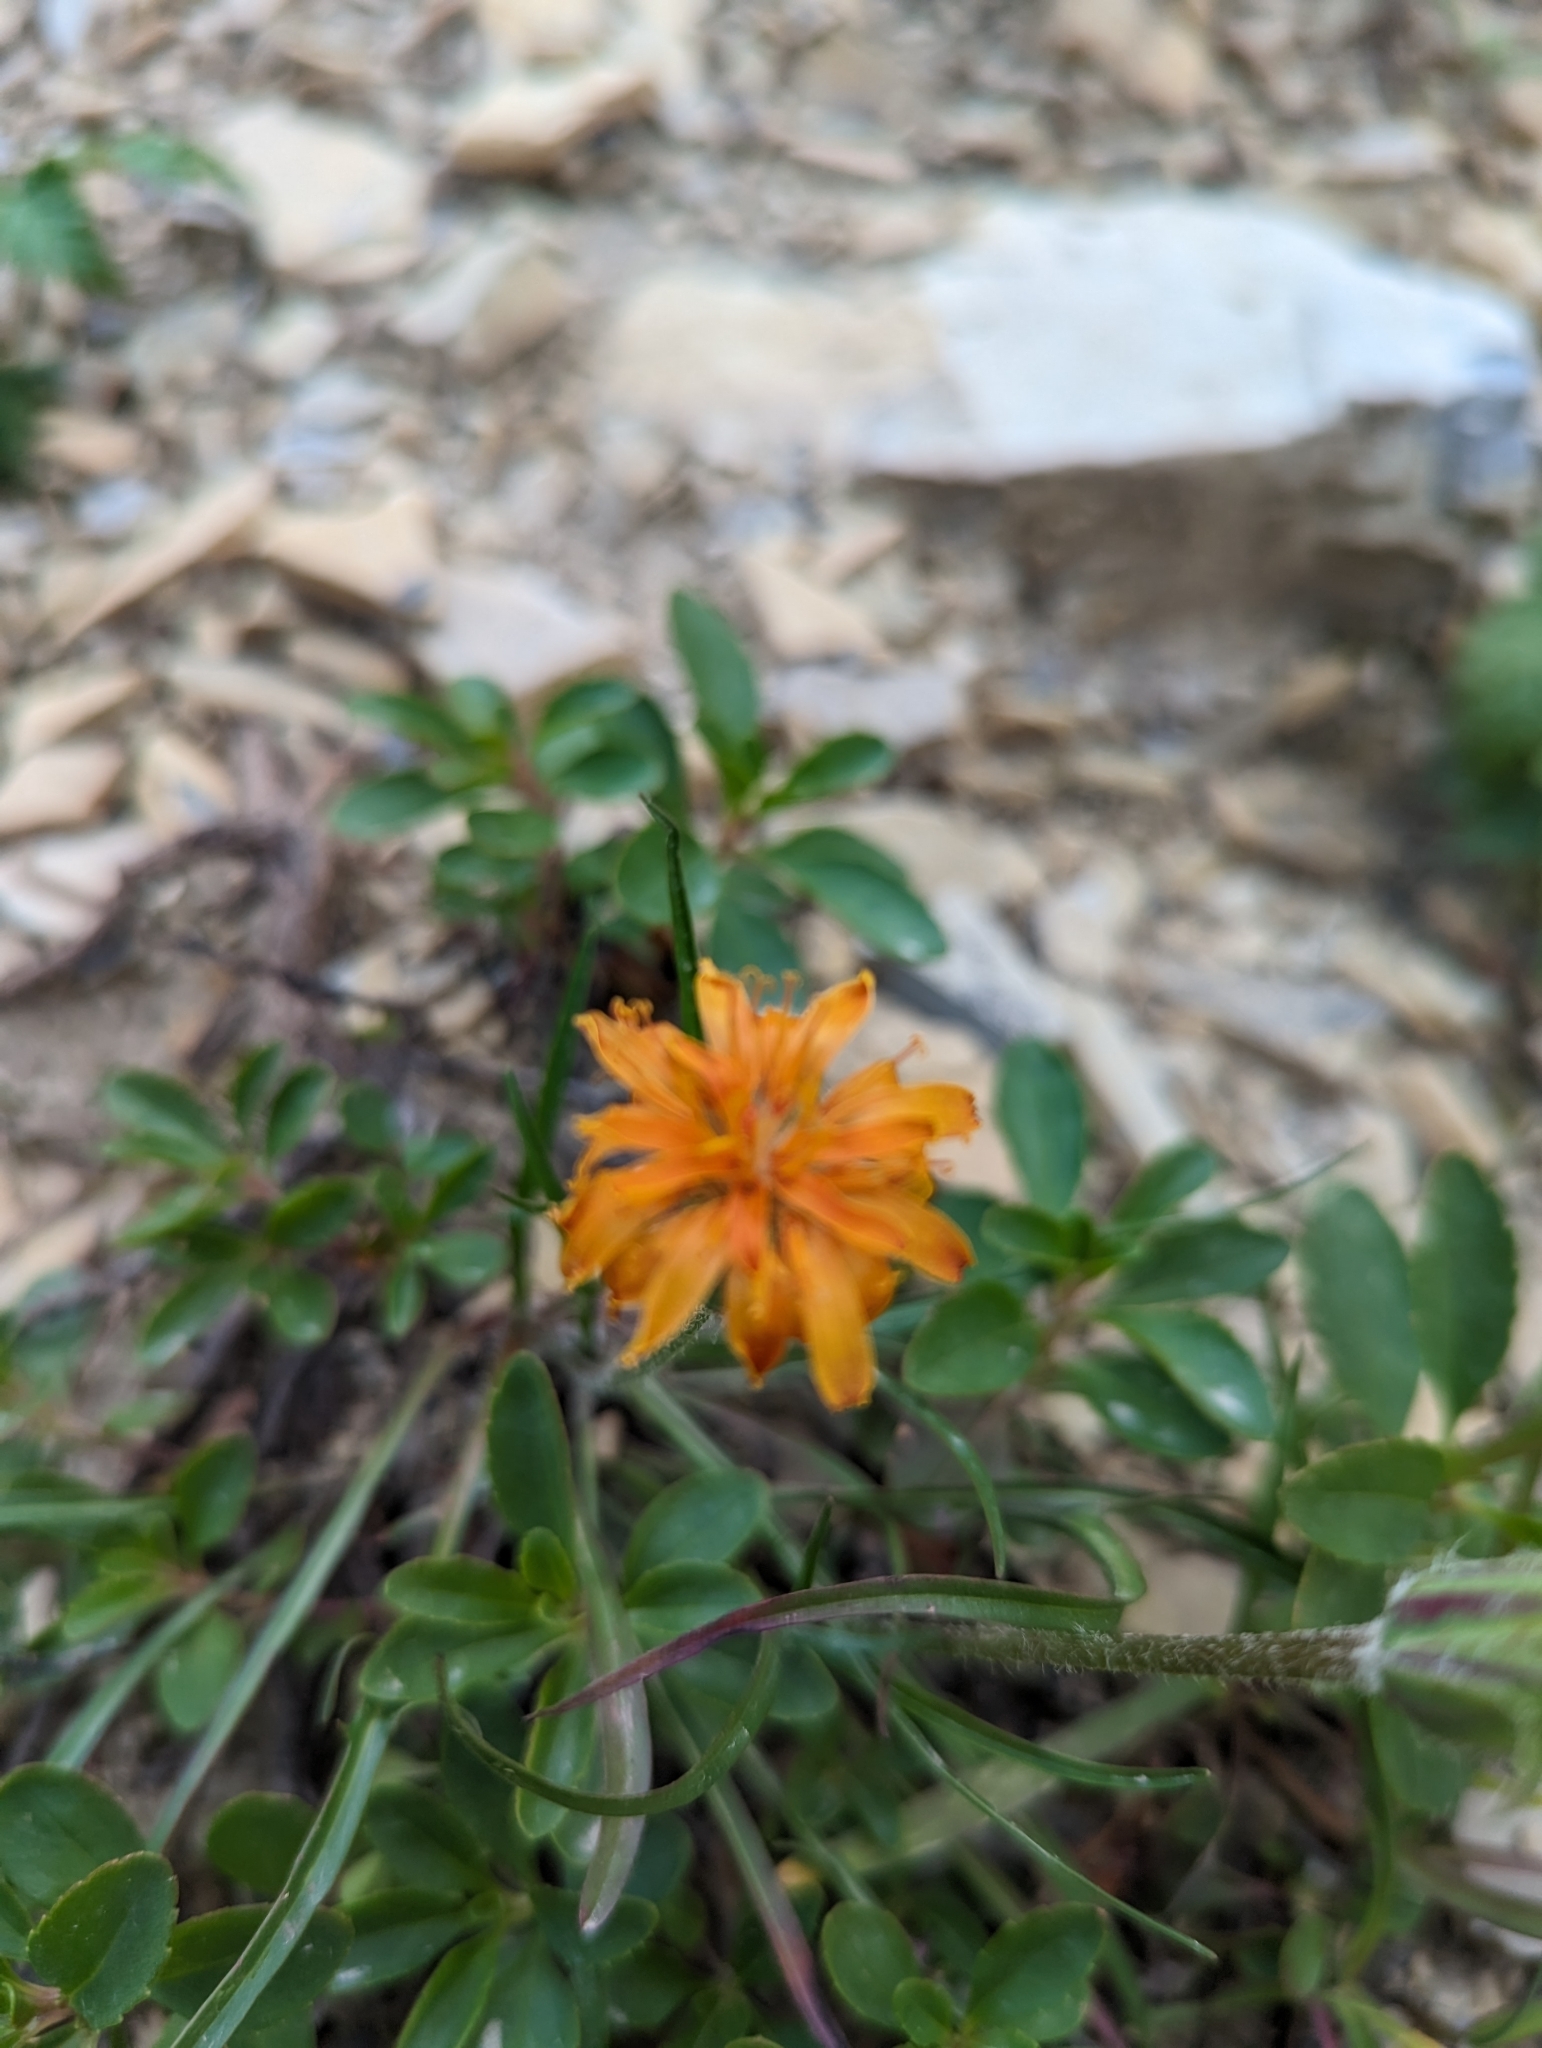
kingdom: Plantae
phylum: Tracheophyta
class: Magnoliopsida
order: Asterales
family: Asteraceae
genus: Agoseris
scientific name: Agoseris aurantiaca
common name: Mountain agoseris
